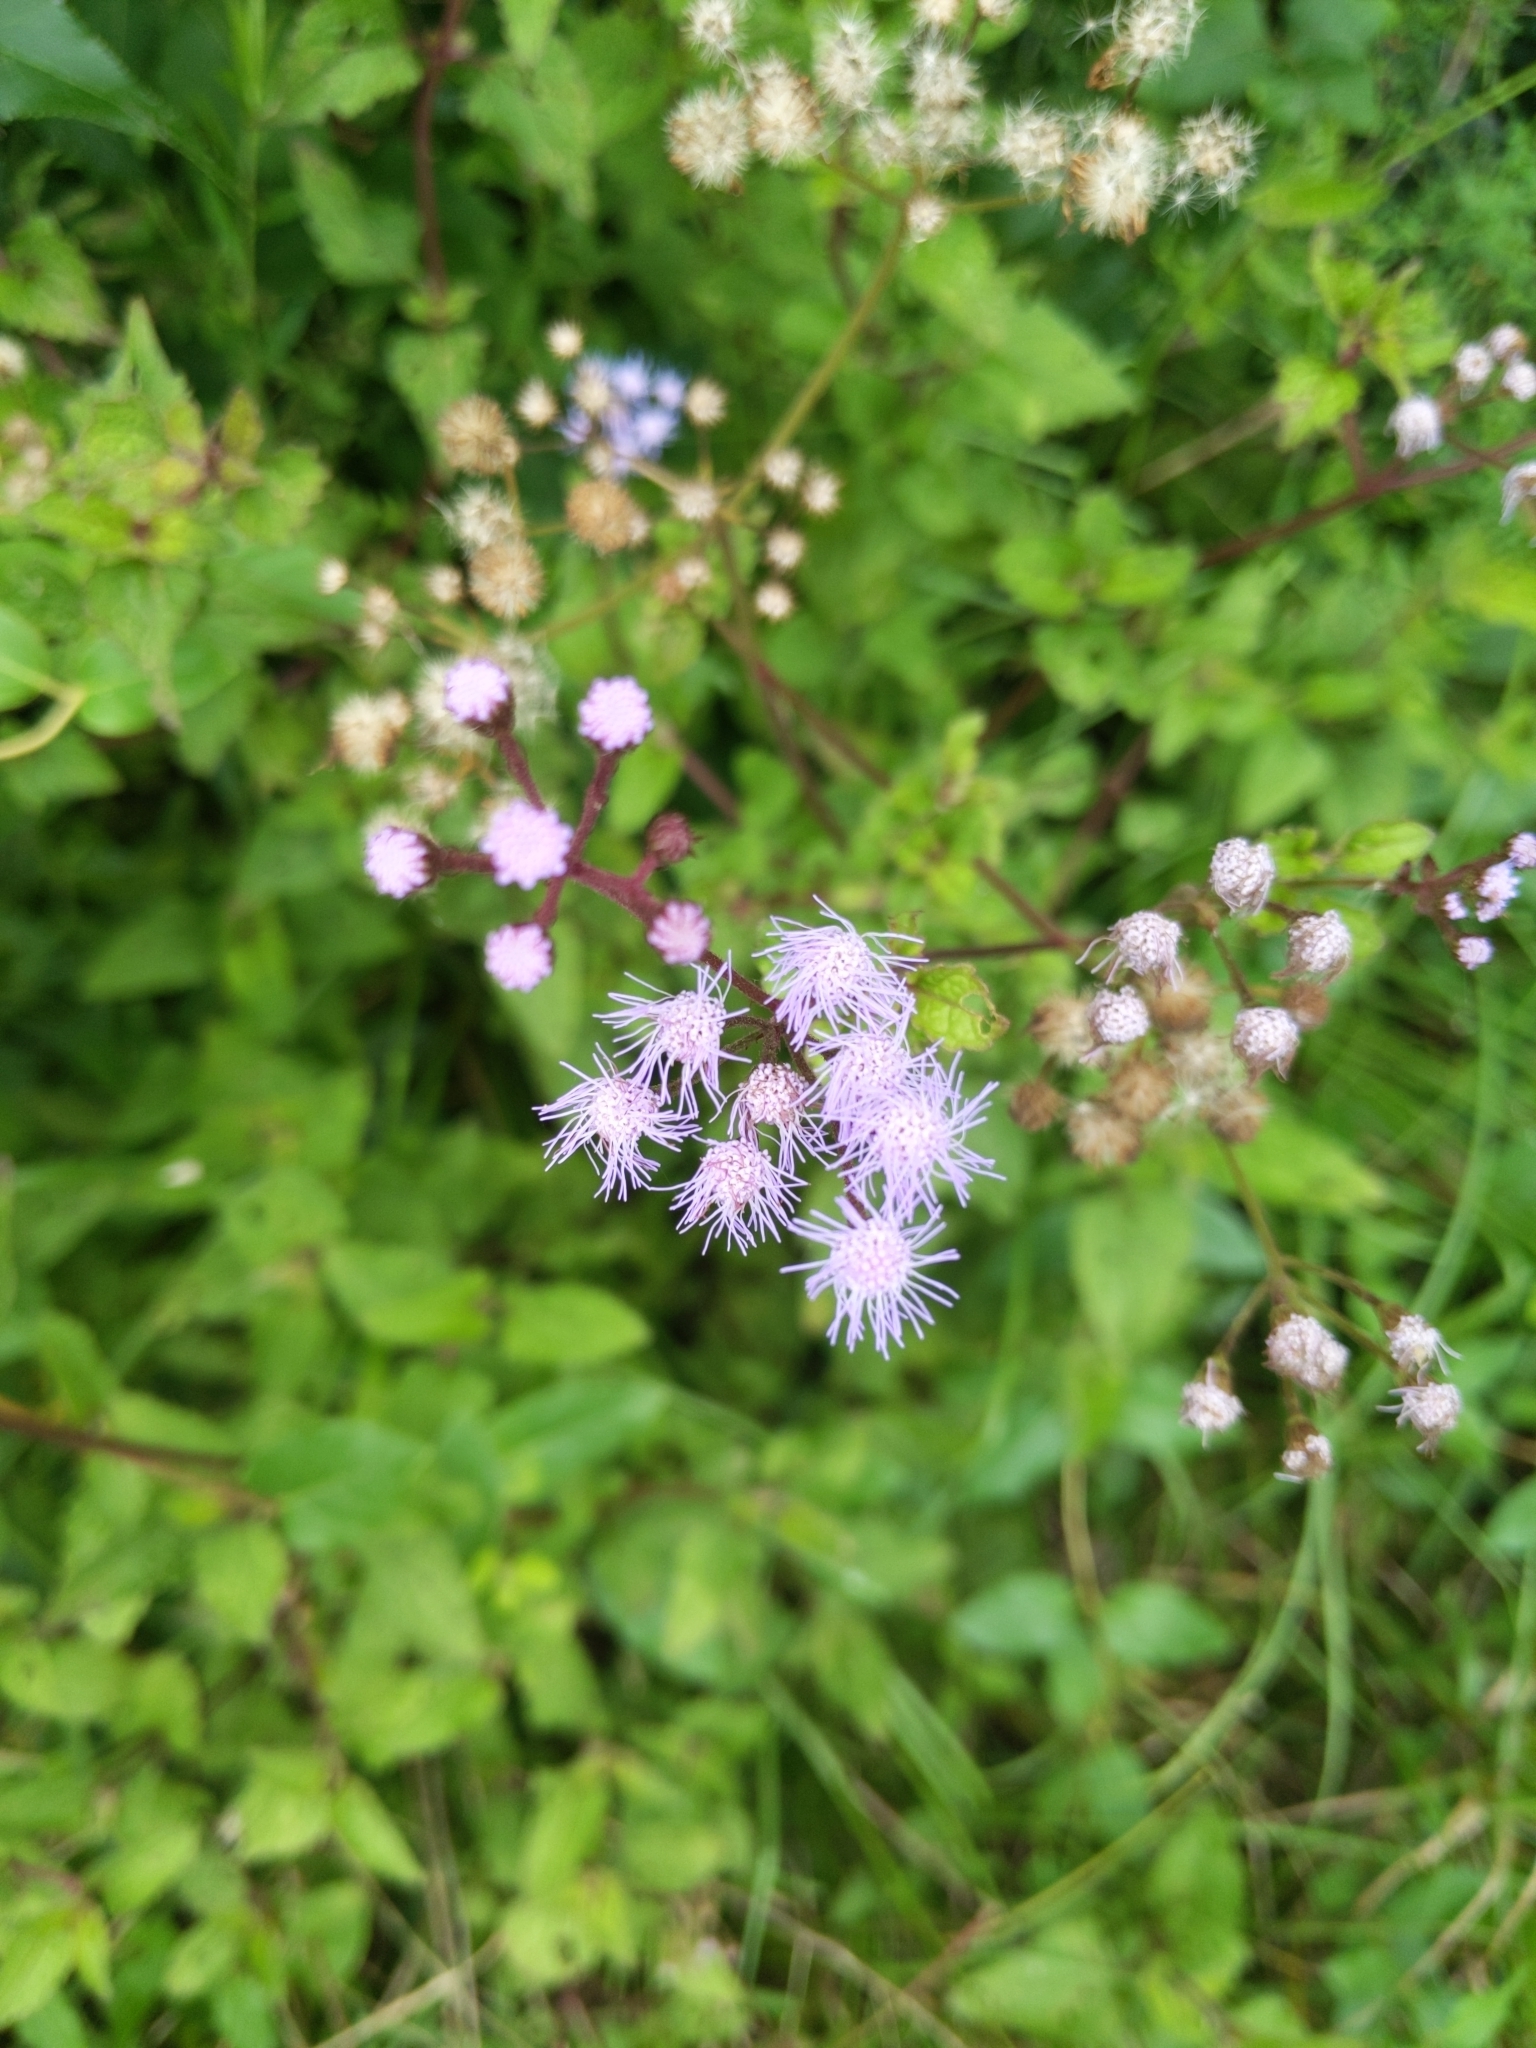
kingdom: Plantae
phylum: Tracheophyta
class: Magnoliopsida
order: Asterales
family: Asteraceae
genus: Conoclinium
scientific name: Conoclinium coelestinum
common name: Blue mistflower
